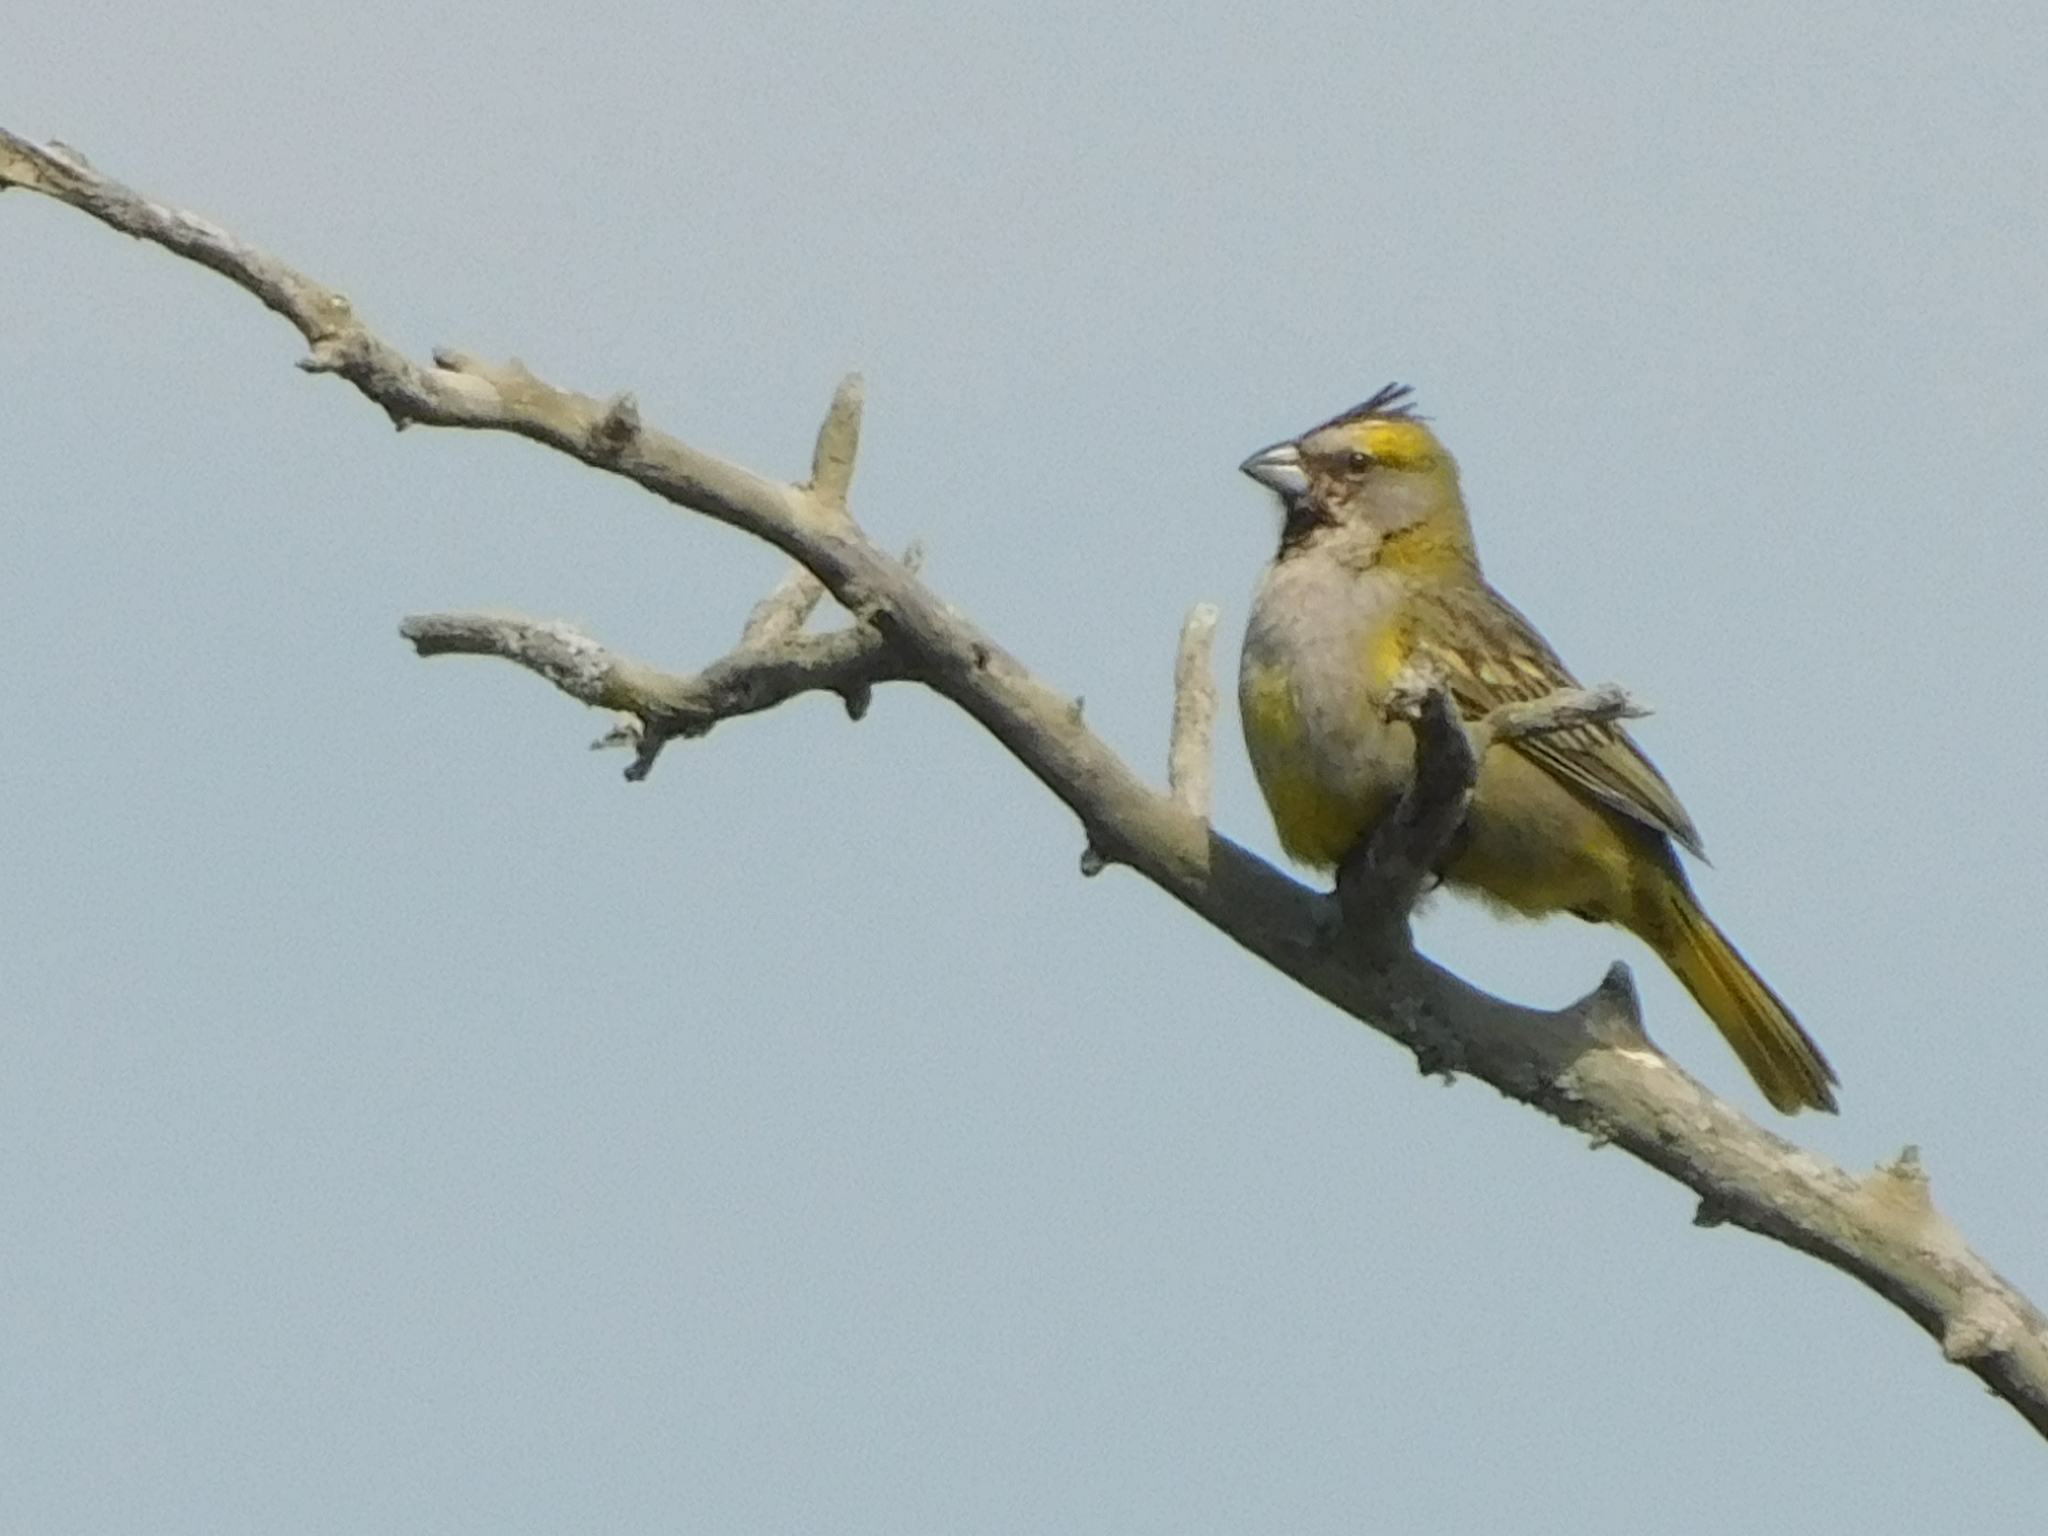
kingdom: Animalia
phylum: Chordata
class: Aves
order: Passeriformes
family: Thraupidae
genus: Gubernatrix
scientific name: Gubernatrix cristata
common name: Yellow cardinal
